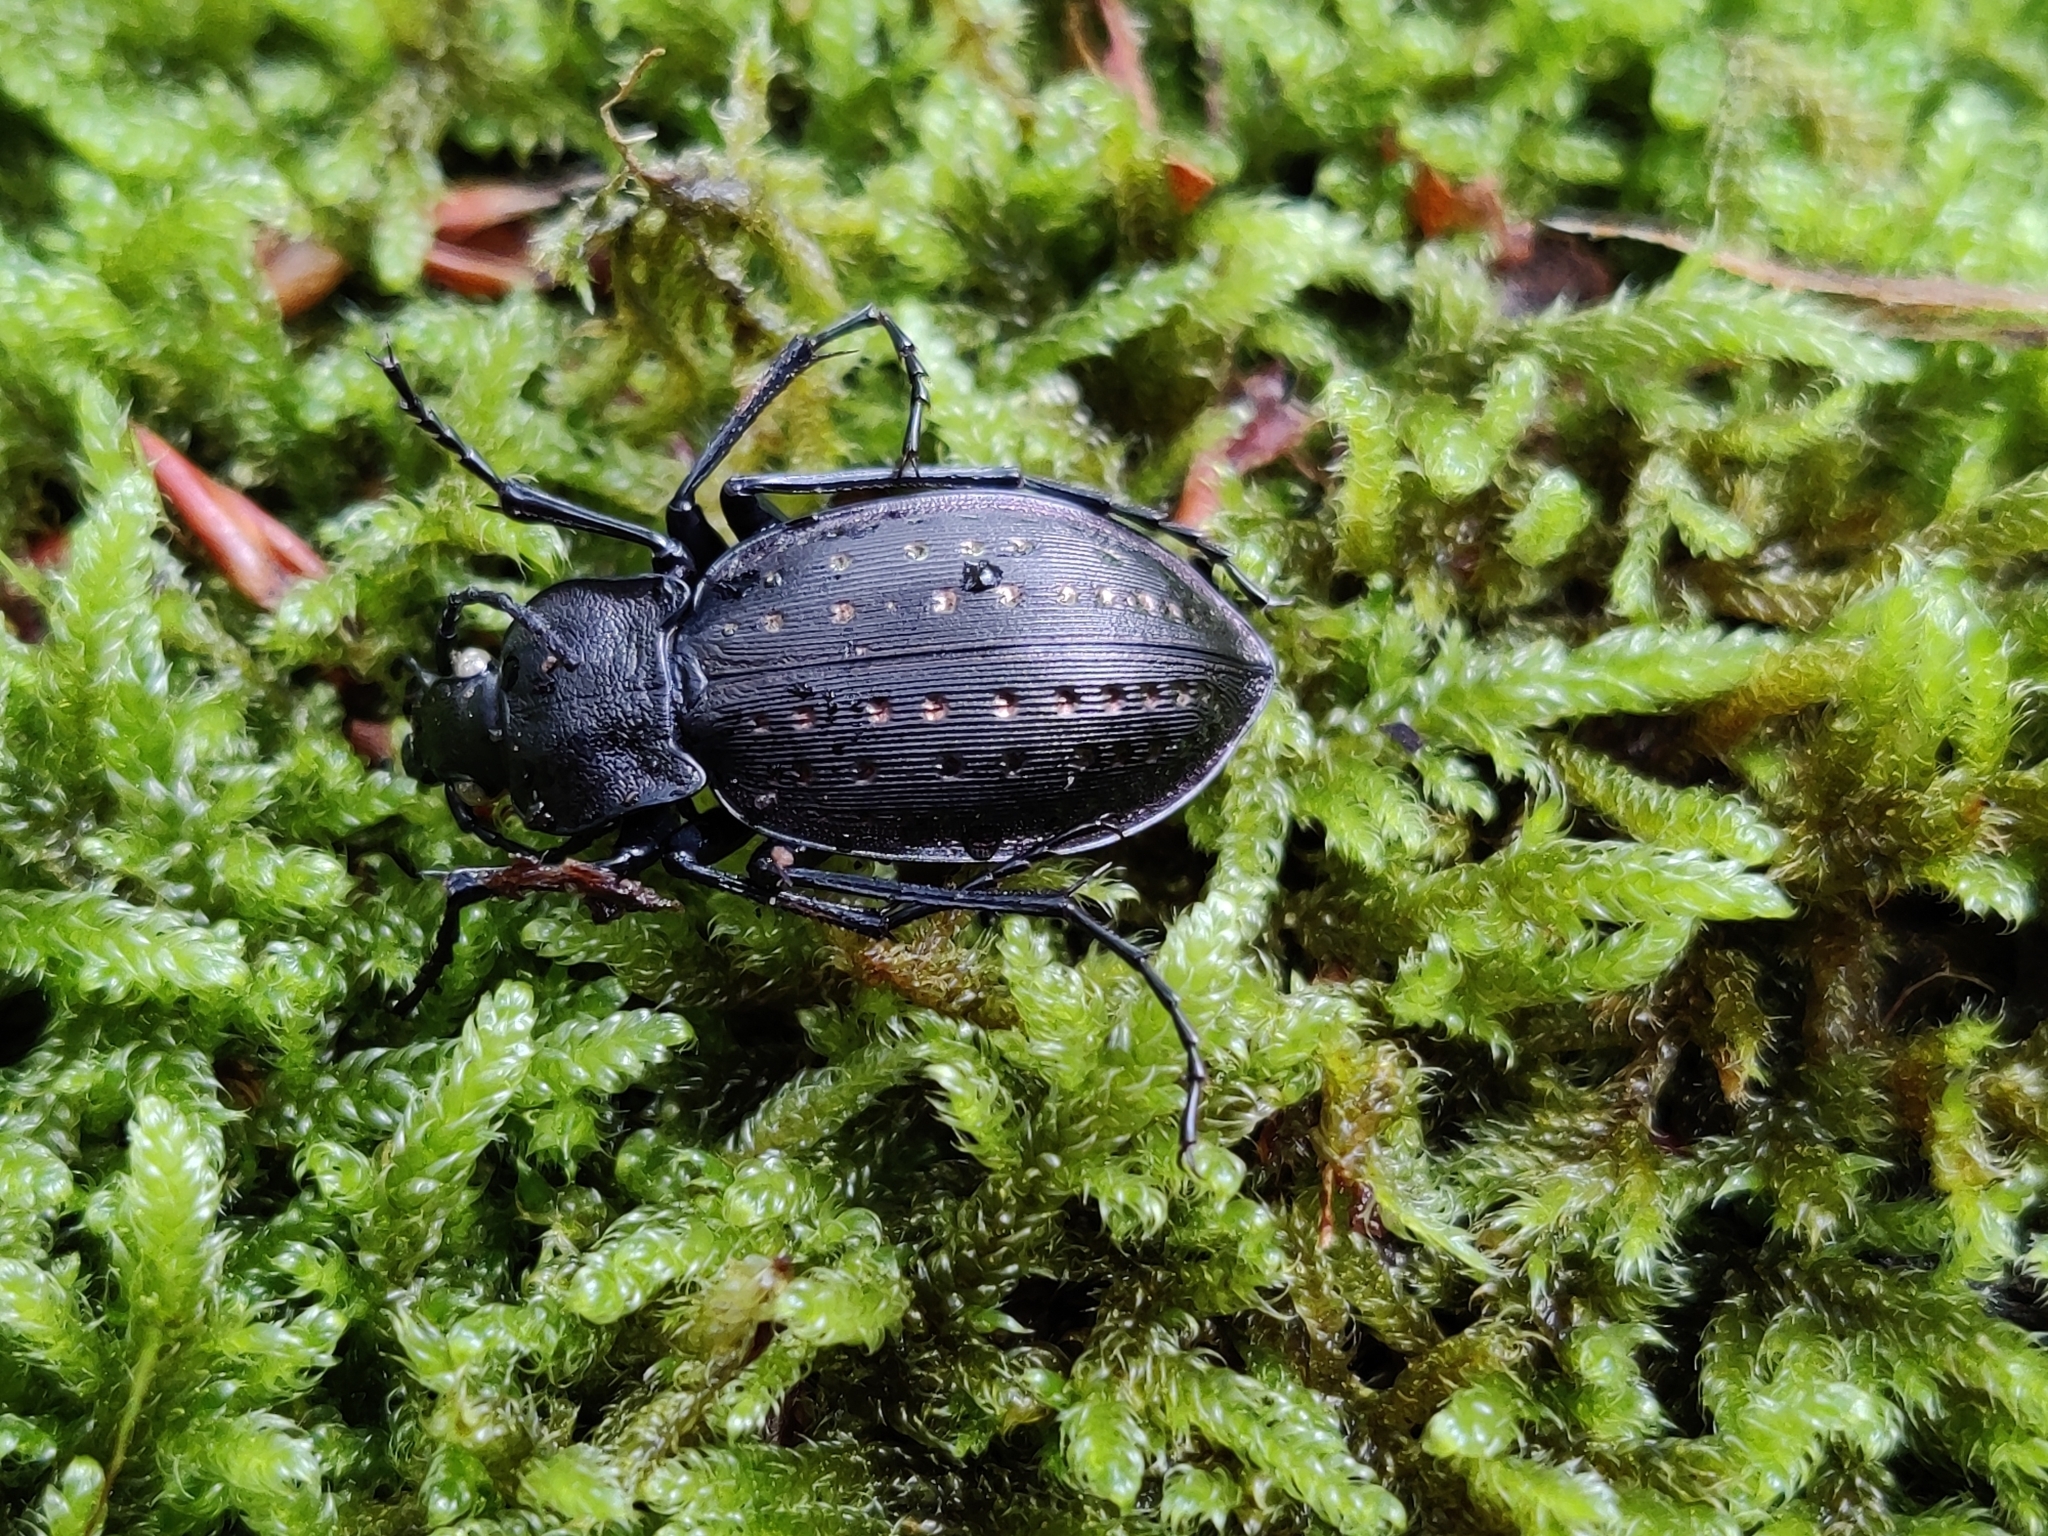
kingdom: Animalia
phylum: Arthropoda
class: Insecta
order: Coleoptera
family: Carabidae
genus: Carabus
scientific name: Carabus hortensis
